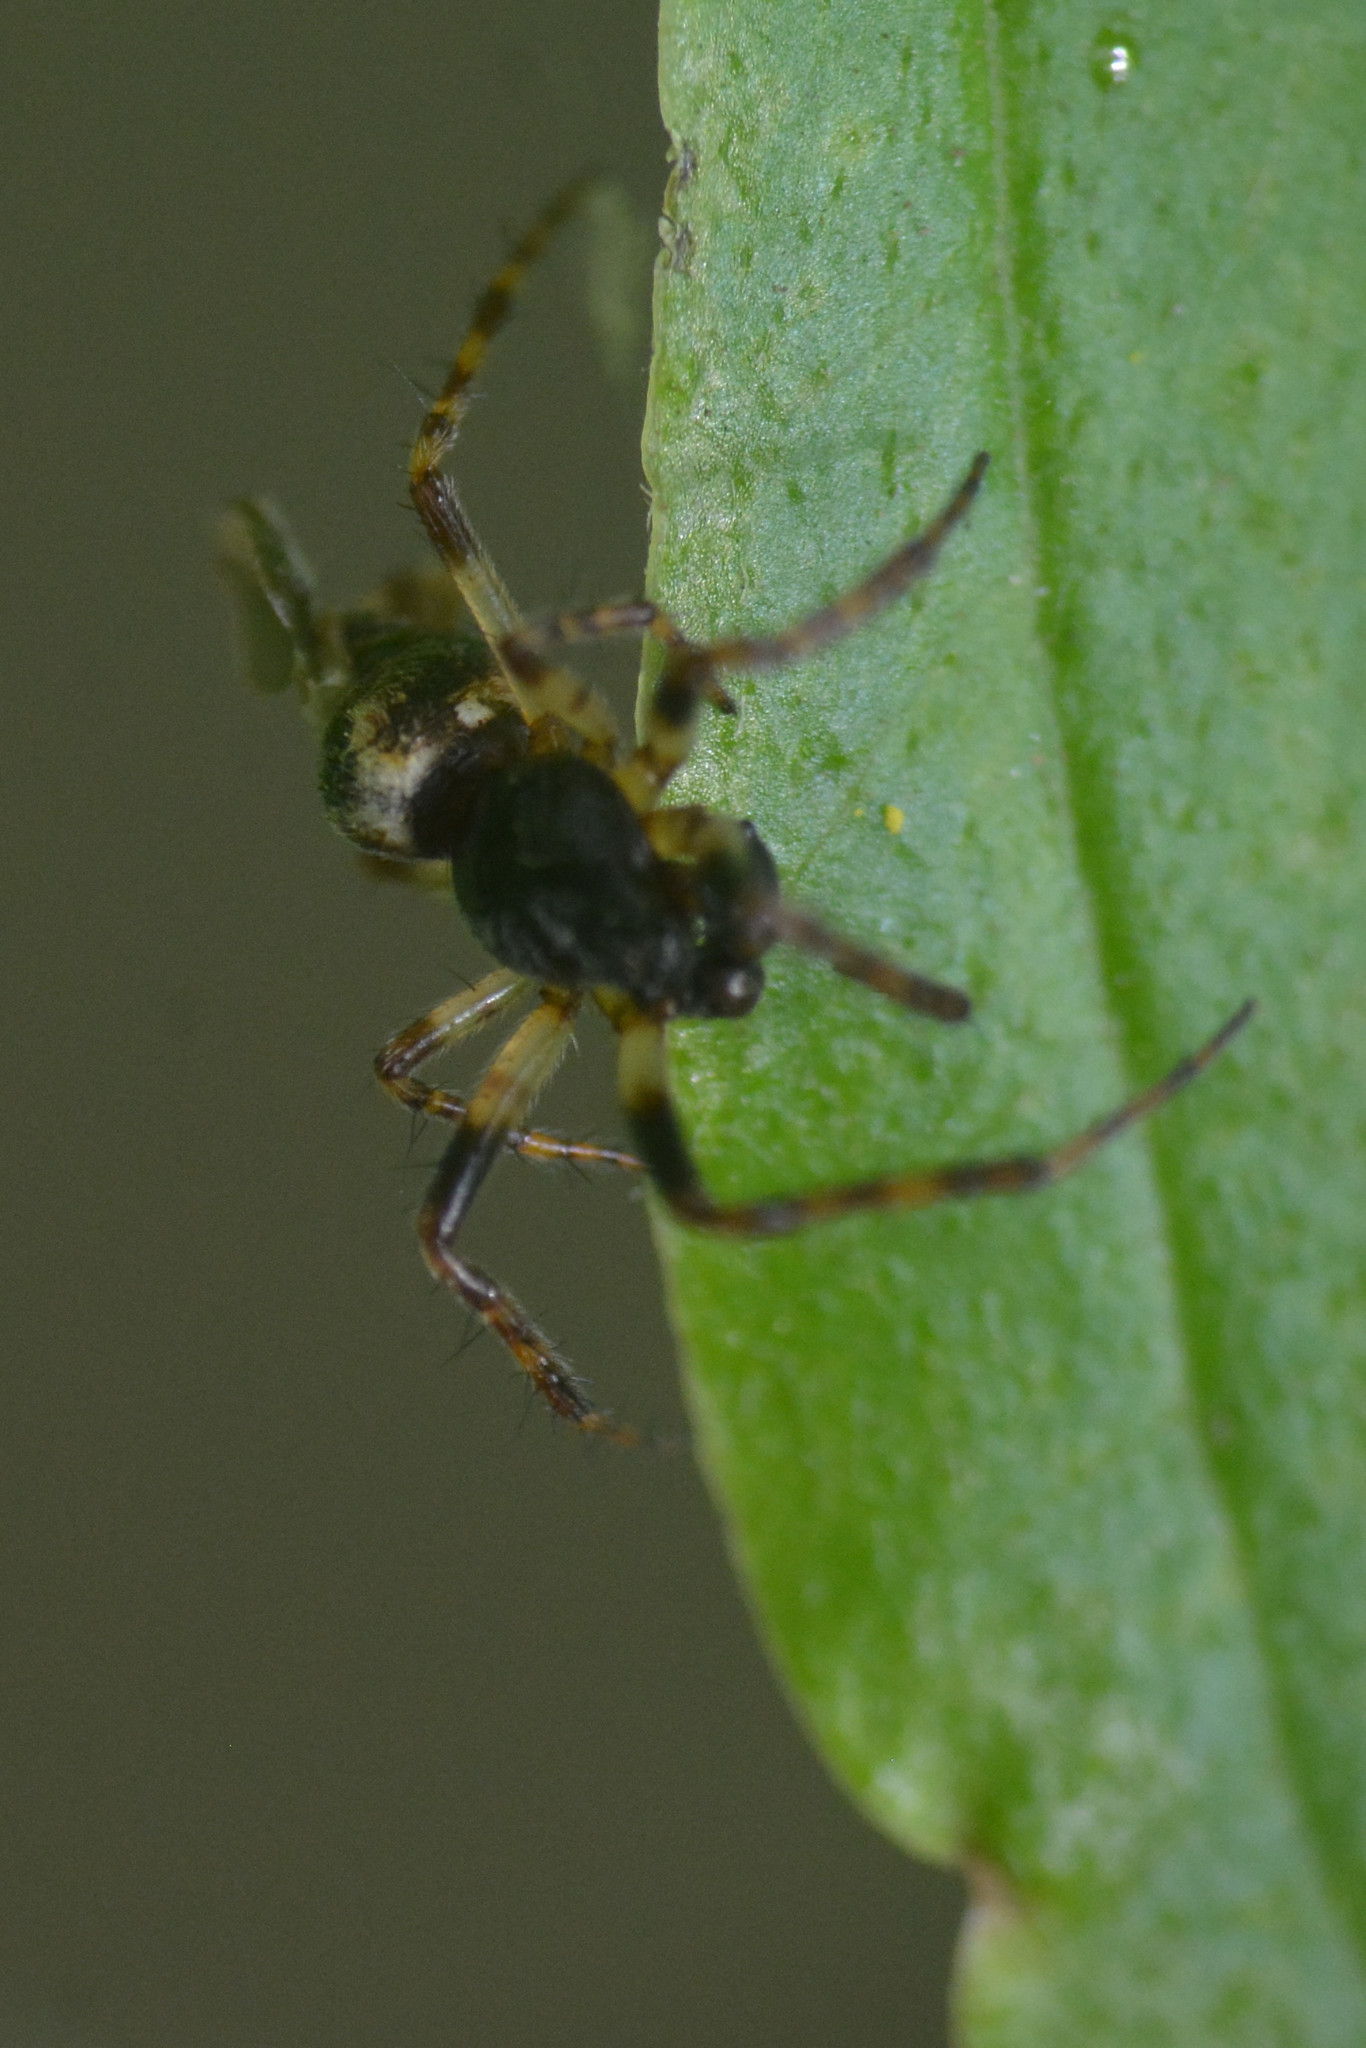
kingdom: Animalia
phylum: Arthropoda
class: Arachnida
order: Araneae
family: Araneidae
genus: Cyclosa
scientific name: Cyclosa conica
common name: Conical trashline orbweaver
